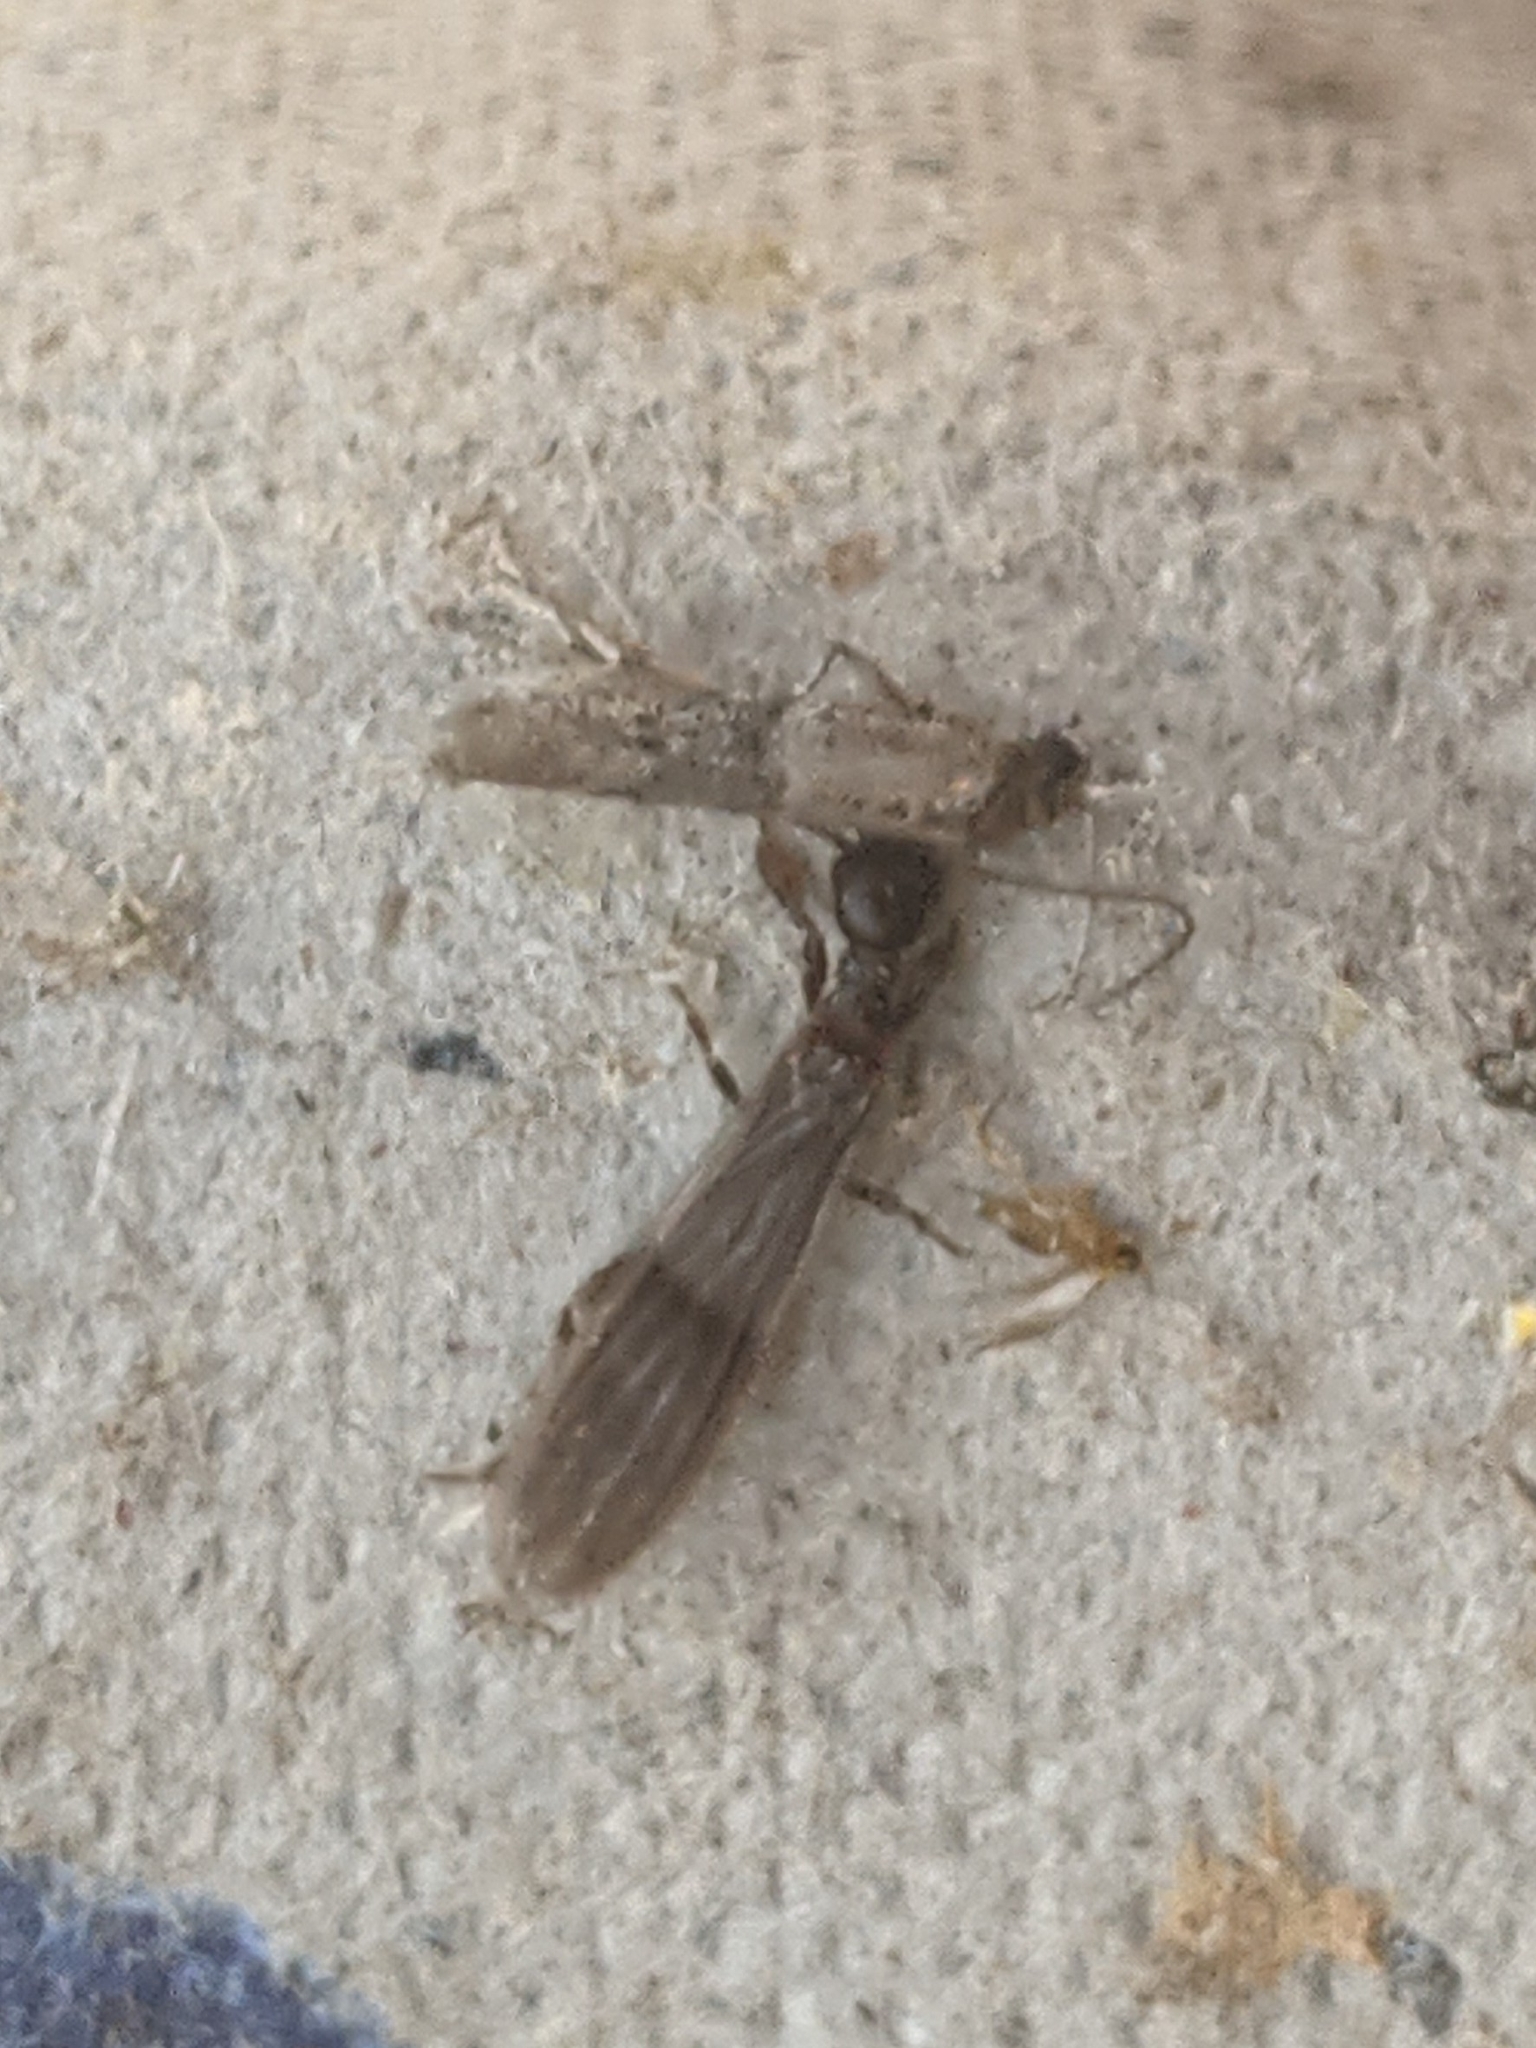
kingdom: Animalia
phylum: Arthropoda
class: Insecta
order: Embioptera
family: Oligotomidae
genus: Oligotoma
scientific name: Oligotoma nigra
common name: Black webspinner
